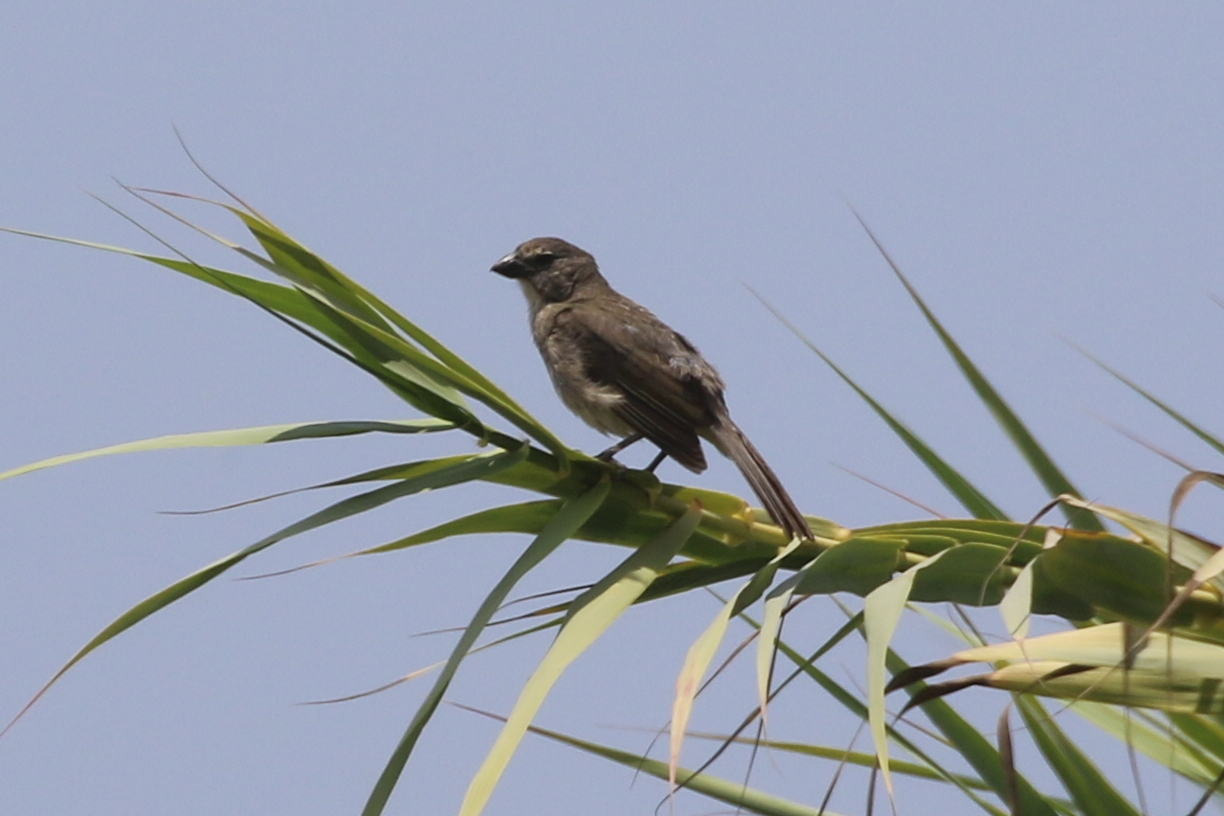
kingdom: Animalia
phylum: Chordata
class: Aves
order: Passeriformes
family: Thraupidae
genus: Saltator
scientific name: Saltator striatipectus
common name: Streaked saltator
